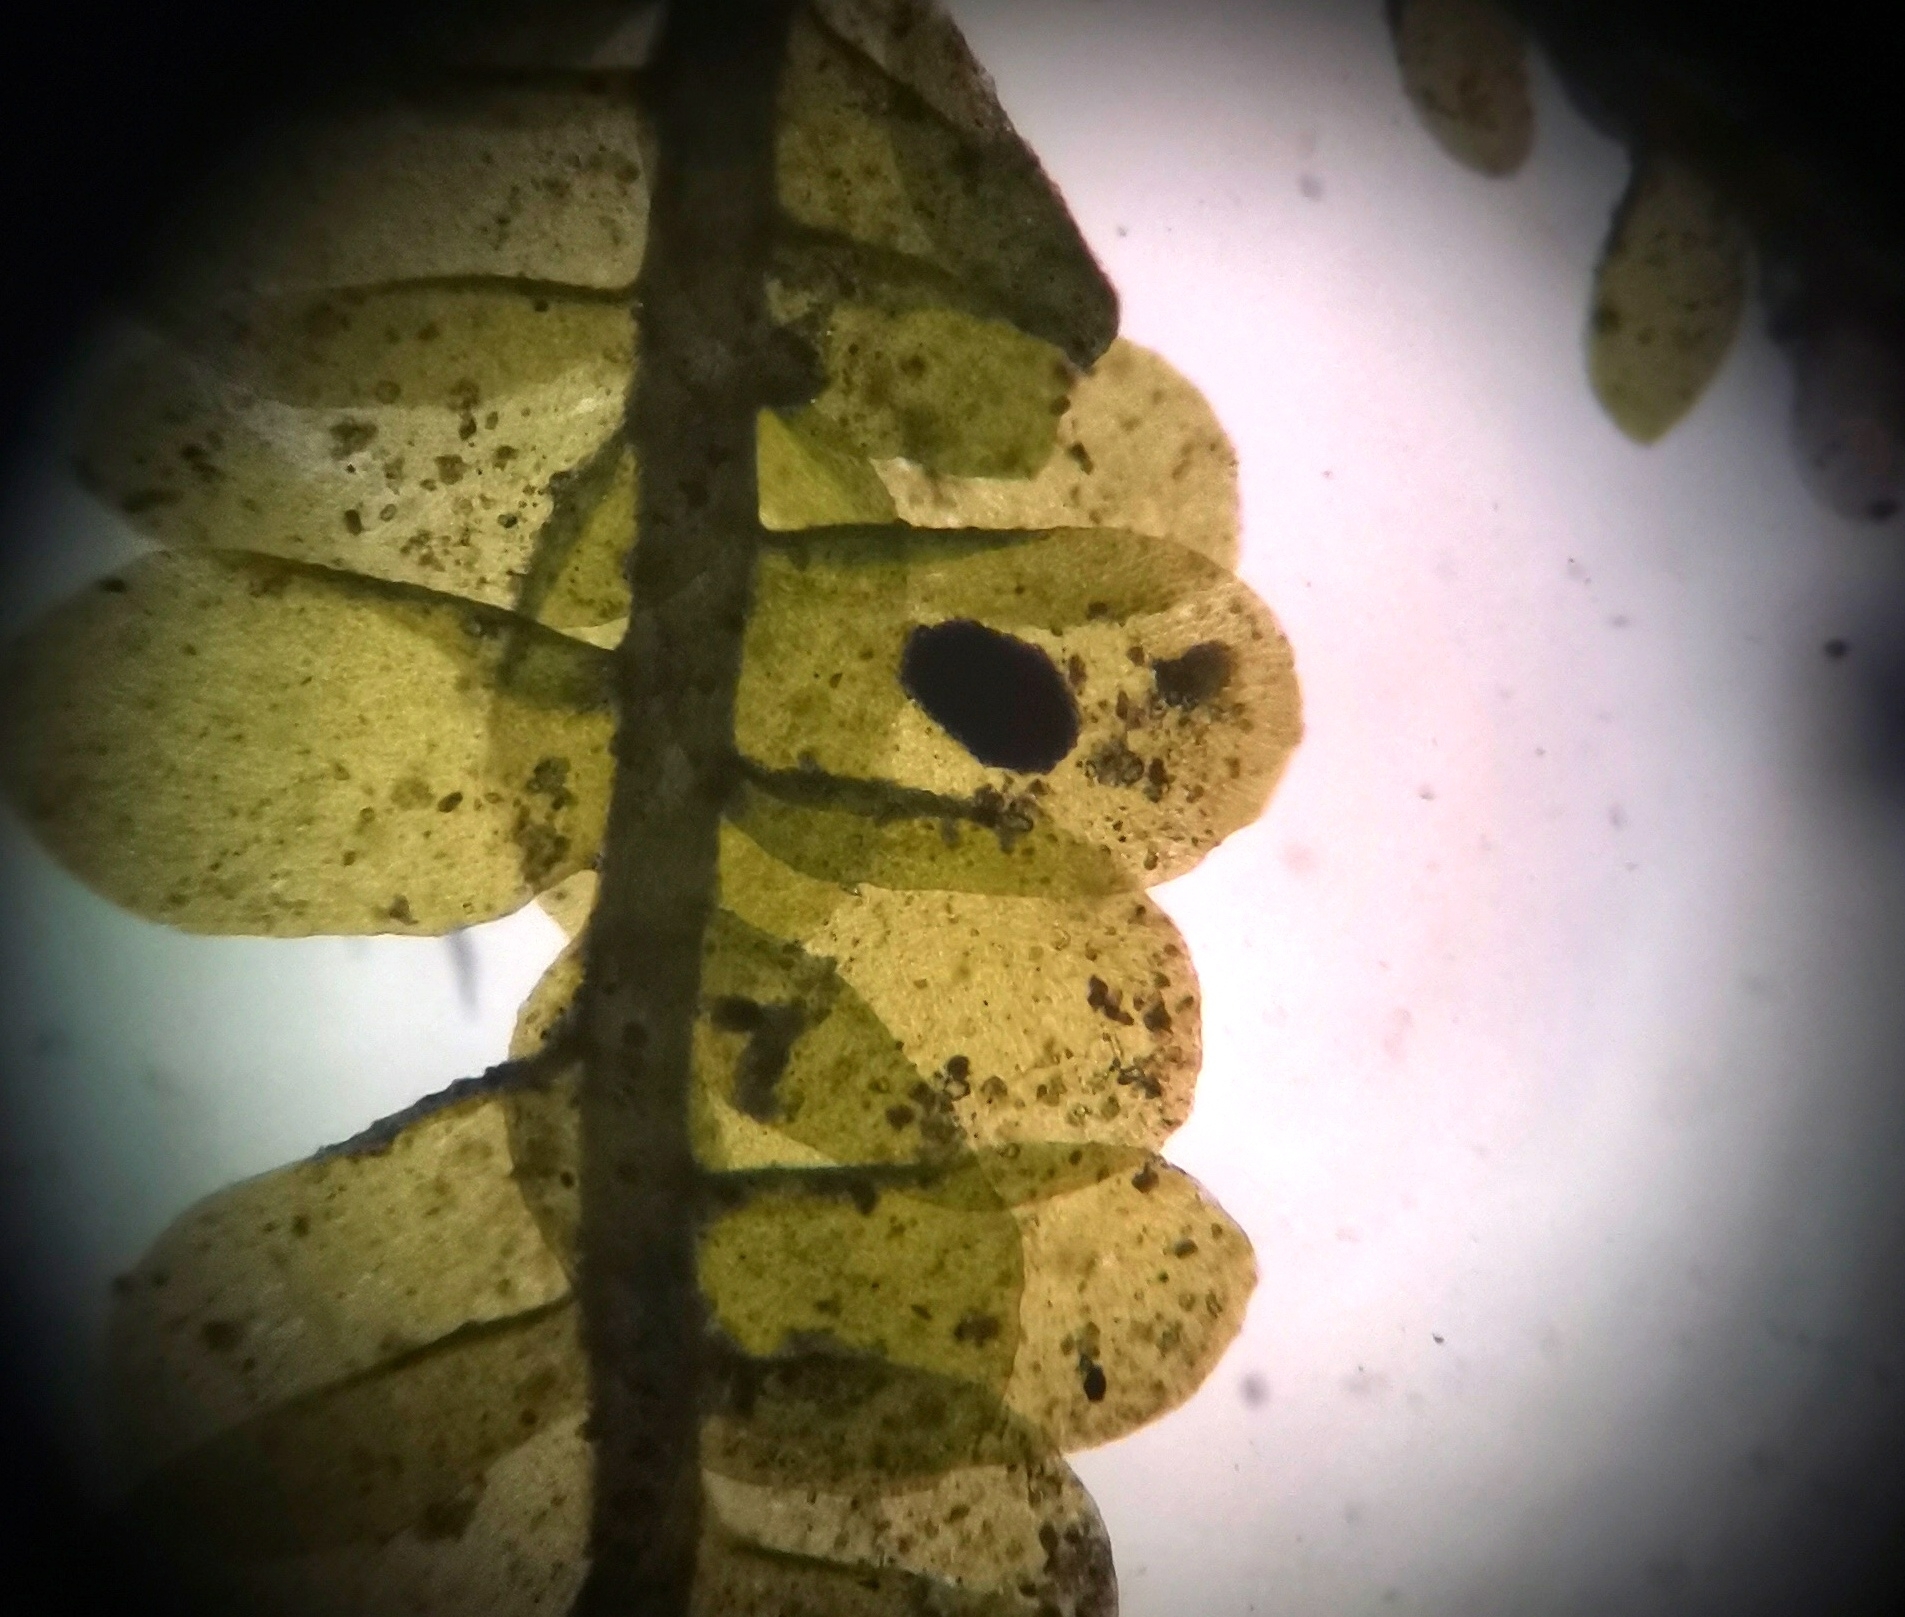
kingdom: Plantae
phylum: Bryophyta
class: Bryopsida
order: Hypnales
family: Neckeraceae
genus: Alleniella
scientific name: Alleniella besseri
